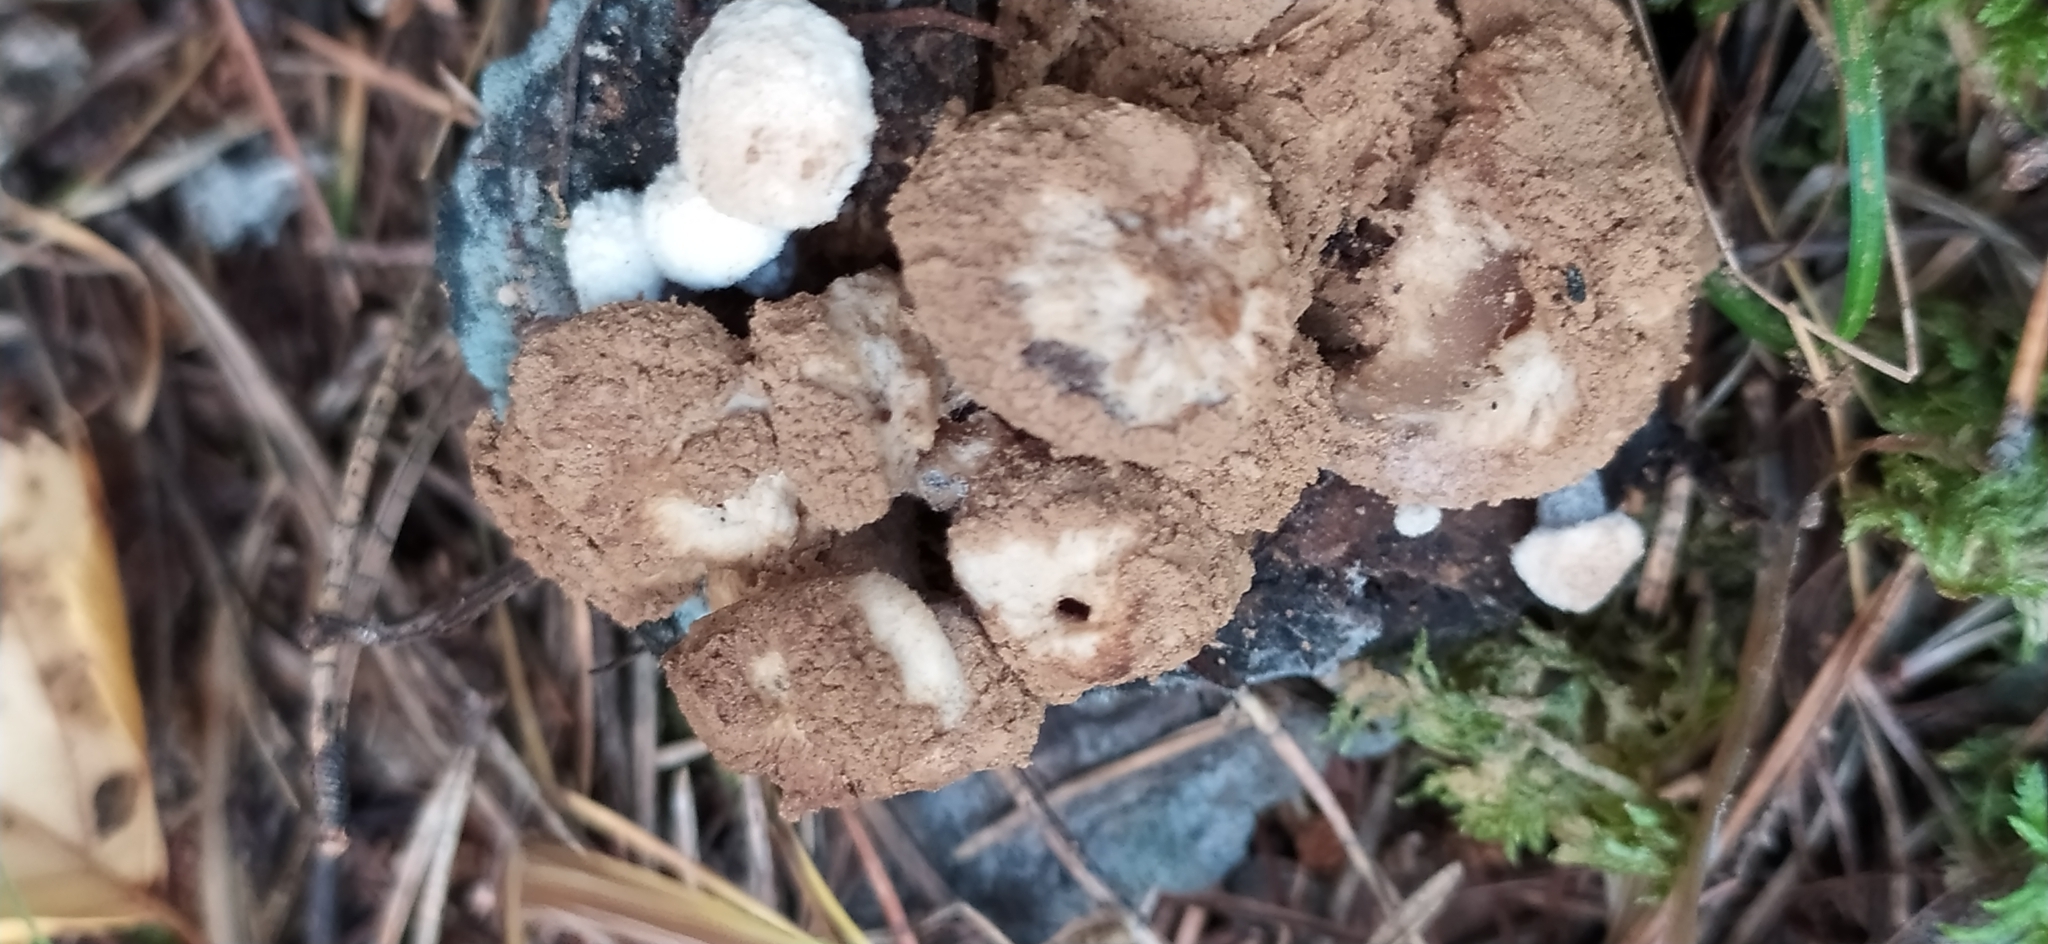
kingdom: Fungi
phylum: Basidiomycota
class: Agaricomycetes
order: Agaricales
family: Lyophyllaceae
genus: Asterophora
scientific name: Asterophora lycoperdoides
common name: Pick-a-back toadstool
